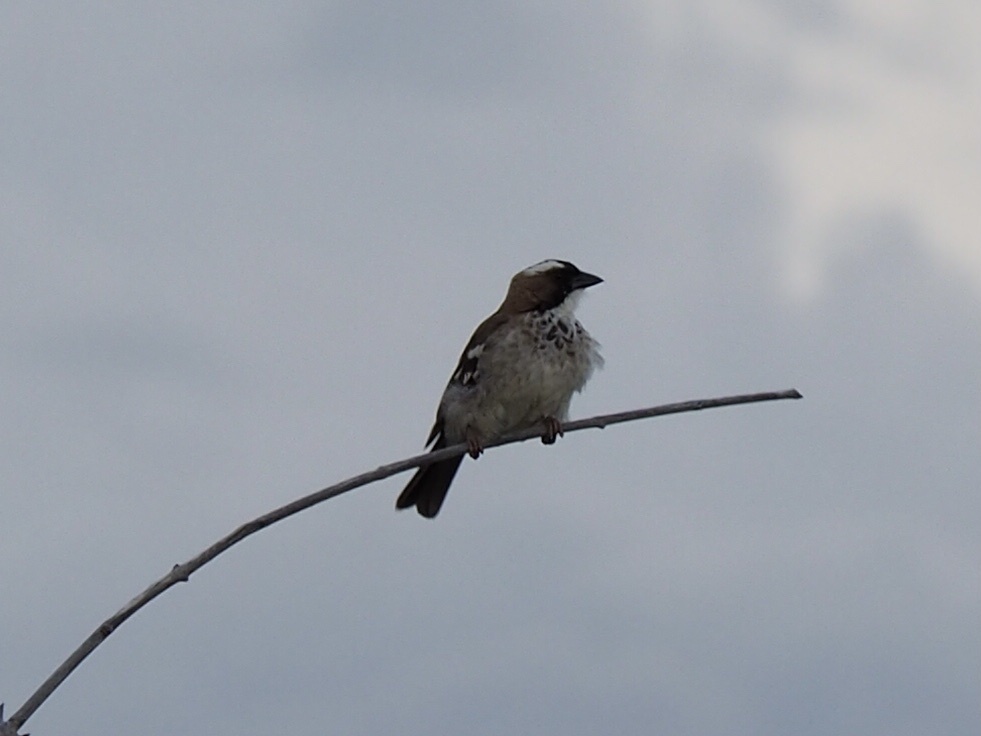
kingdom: Animalia
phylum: Chordata
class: Aves
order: Passeriformes
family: Passeridae
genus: Plocepasser
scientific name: Plocepasser mahali
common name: White-browed sparrow-weaver
